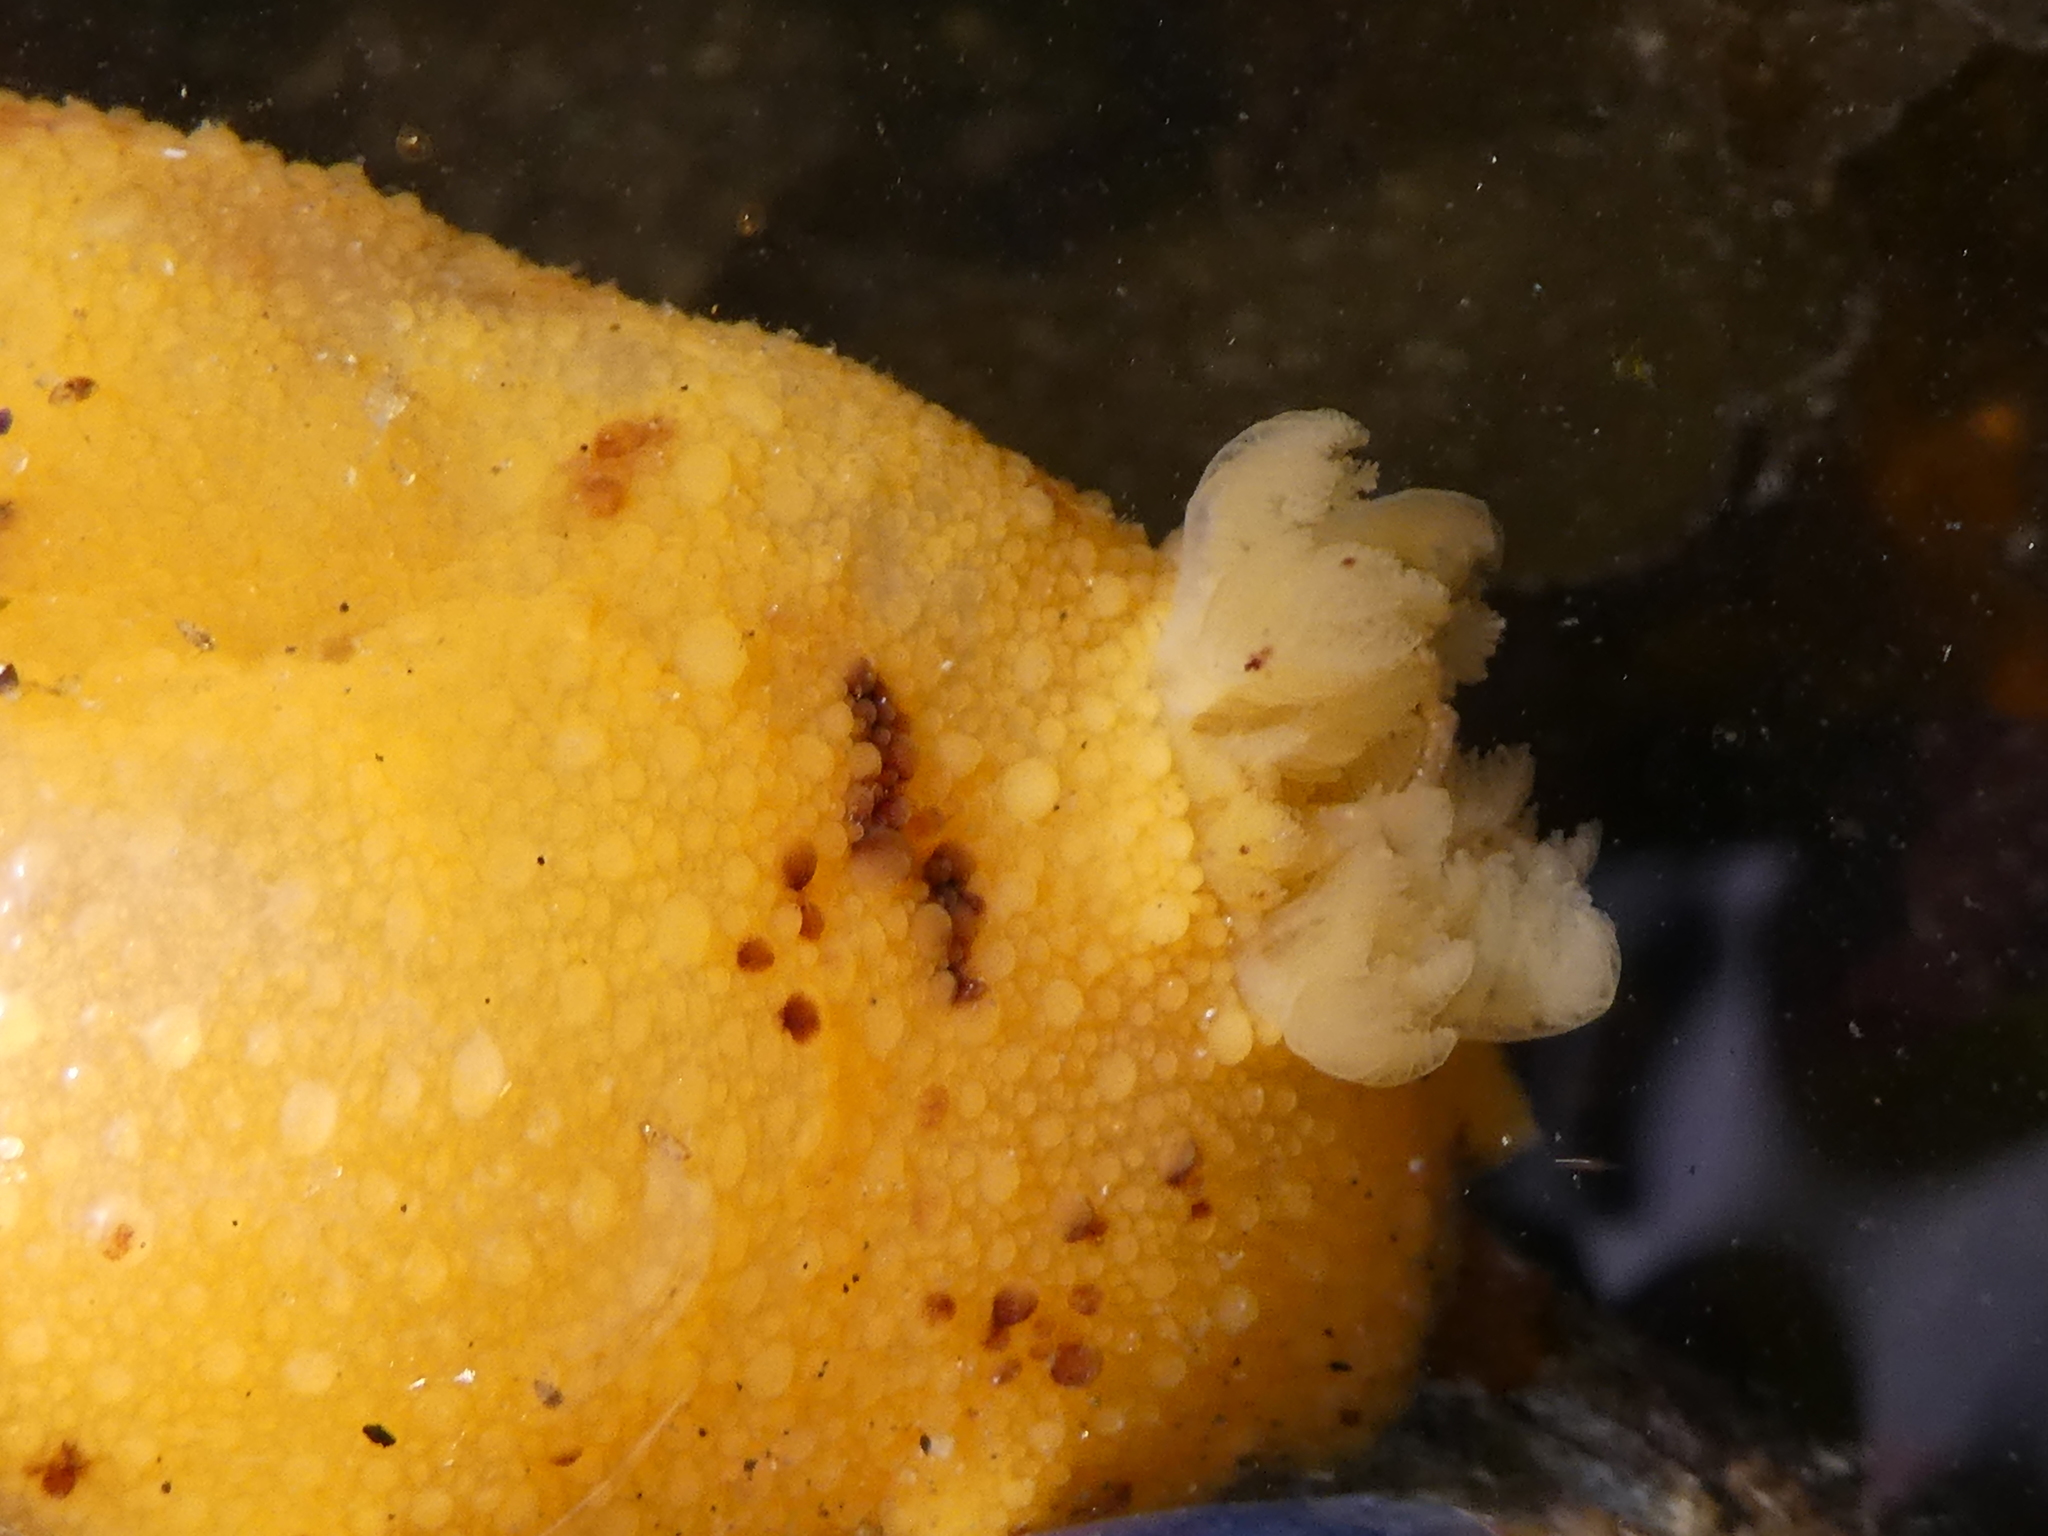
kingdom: Animalia
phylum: Mollusca
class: Gastropoda
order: Nudibranchia
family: Dorididae
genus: Doris
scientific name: Doris montereyensis
